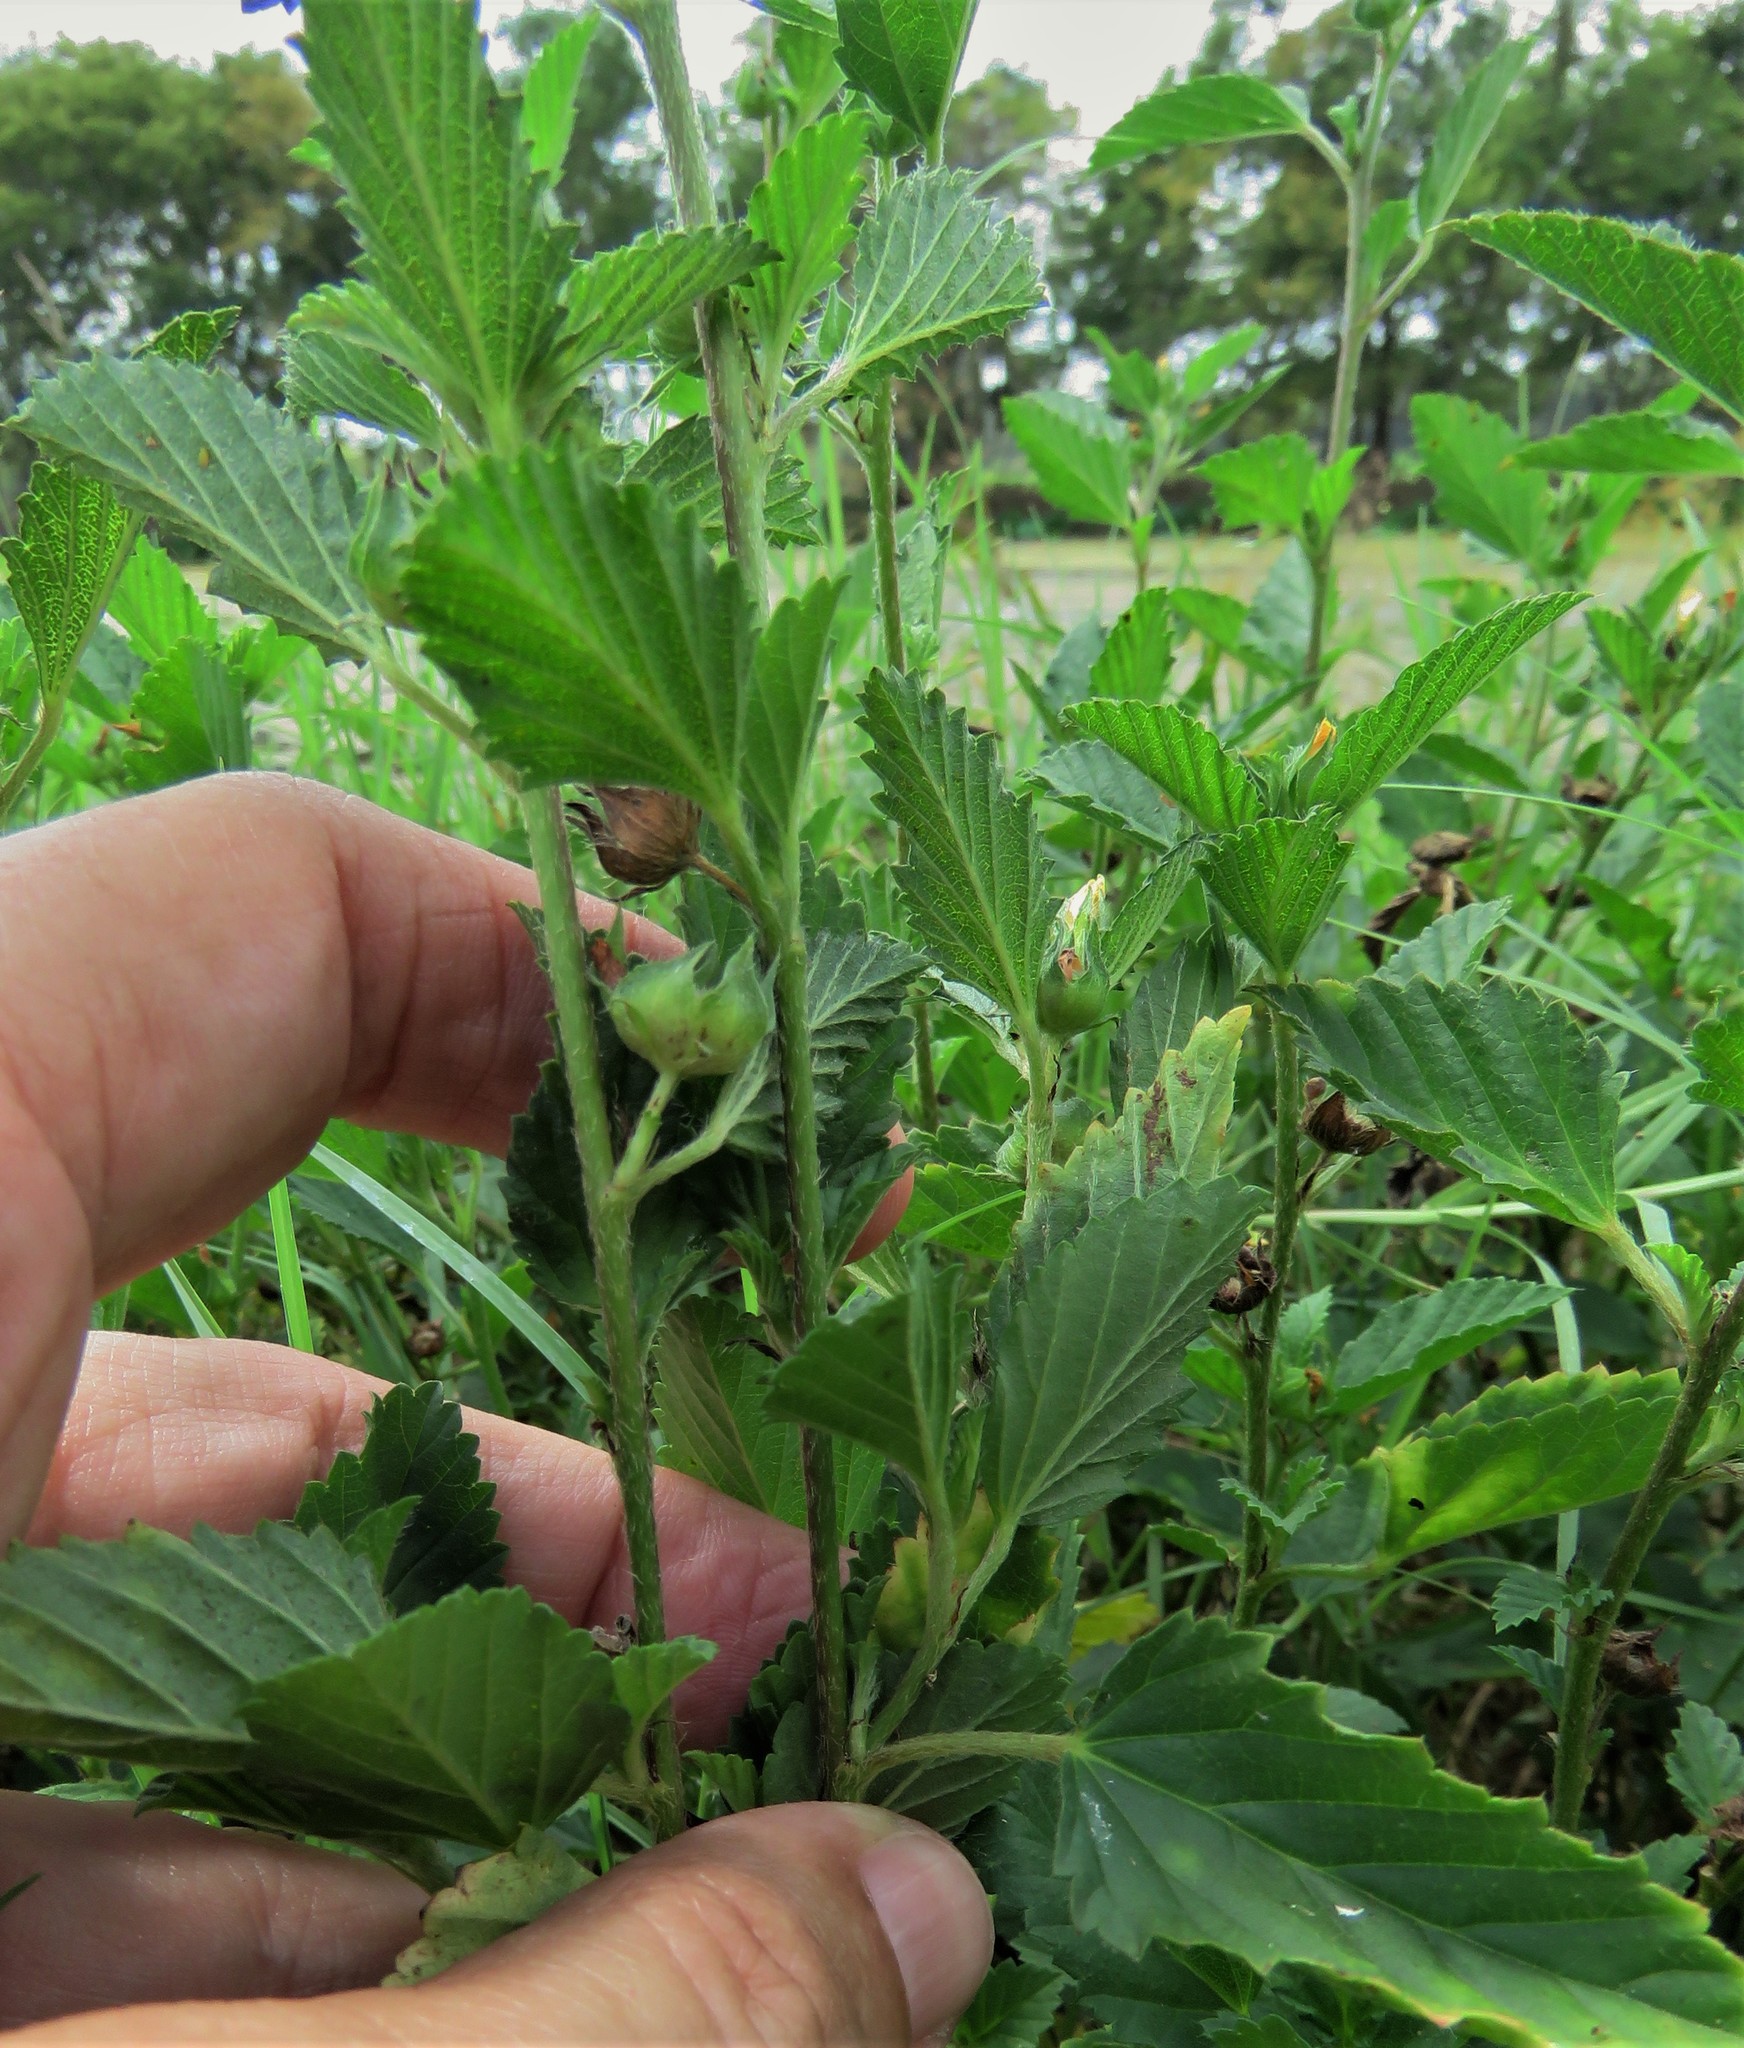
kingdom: Plantae
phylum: Tracheophyta
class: Magnoliopsida
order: Malvales
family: Malvaceae
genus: Malvastrum
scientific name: Malvastrum coromandelianum
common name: Threelobe false mallow
